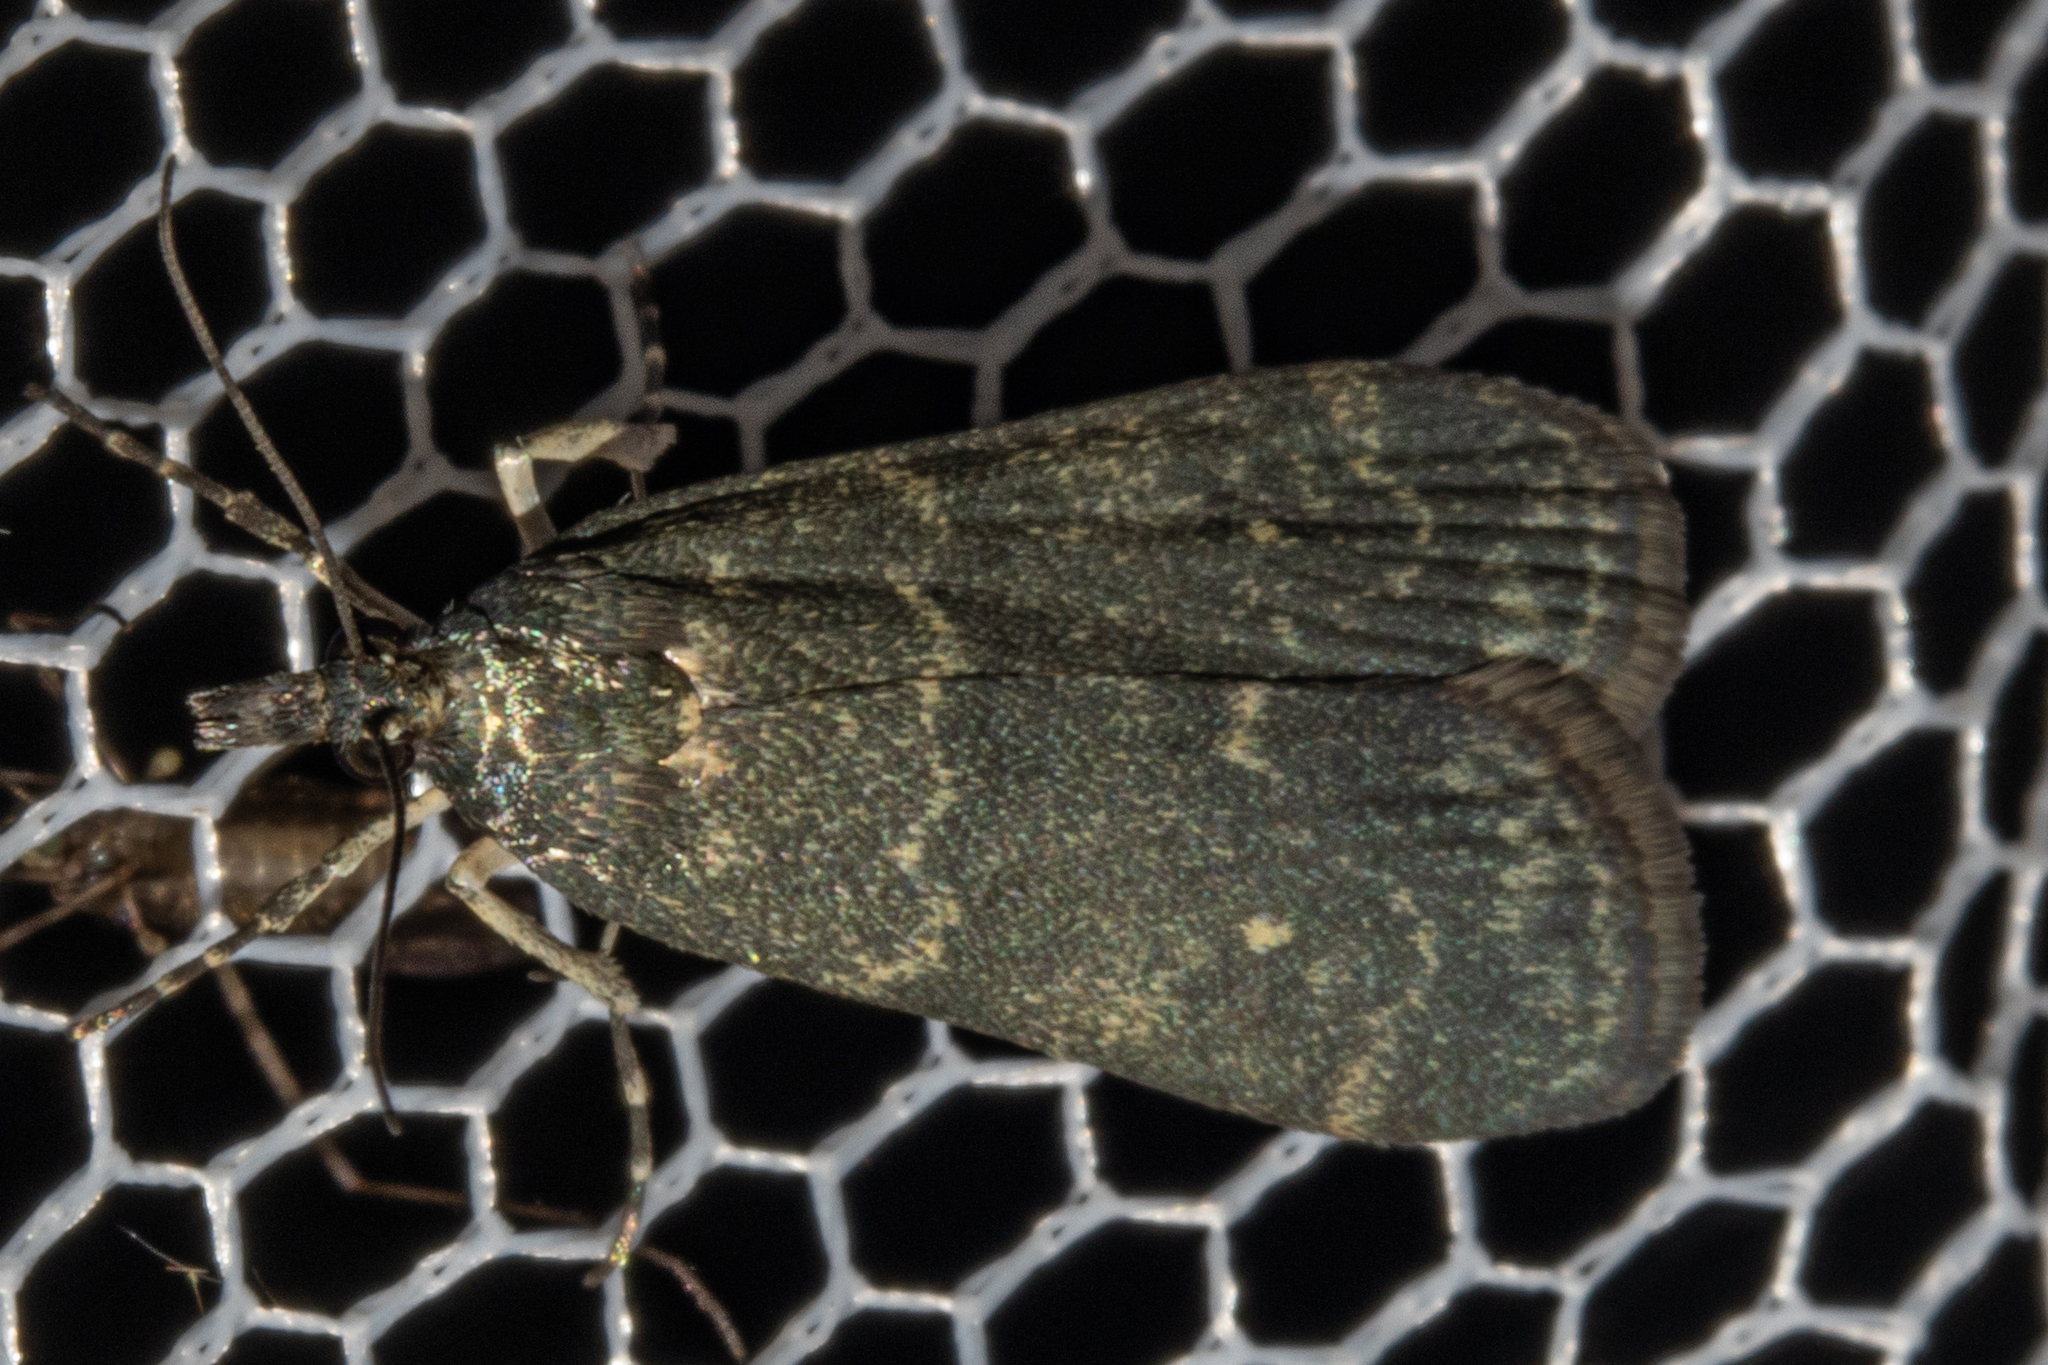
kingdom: Animalia
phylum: Arthropoda
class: Insecta
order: Lepidoptera
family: Crambidae
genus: Eudonia
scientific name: Eudonia cataxesta
